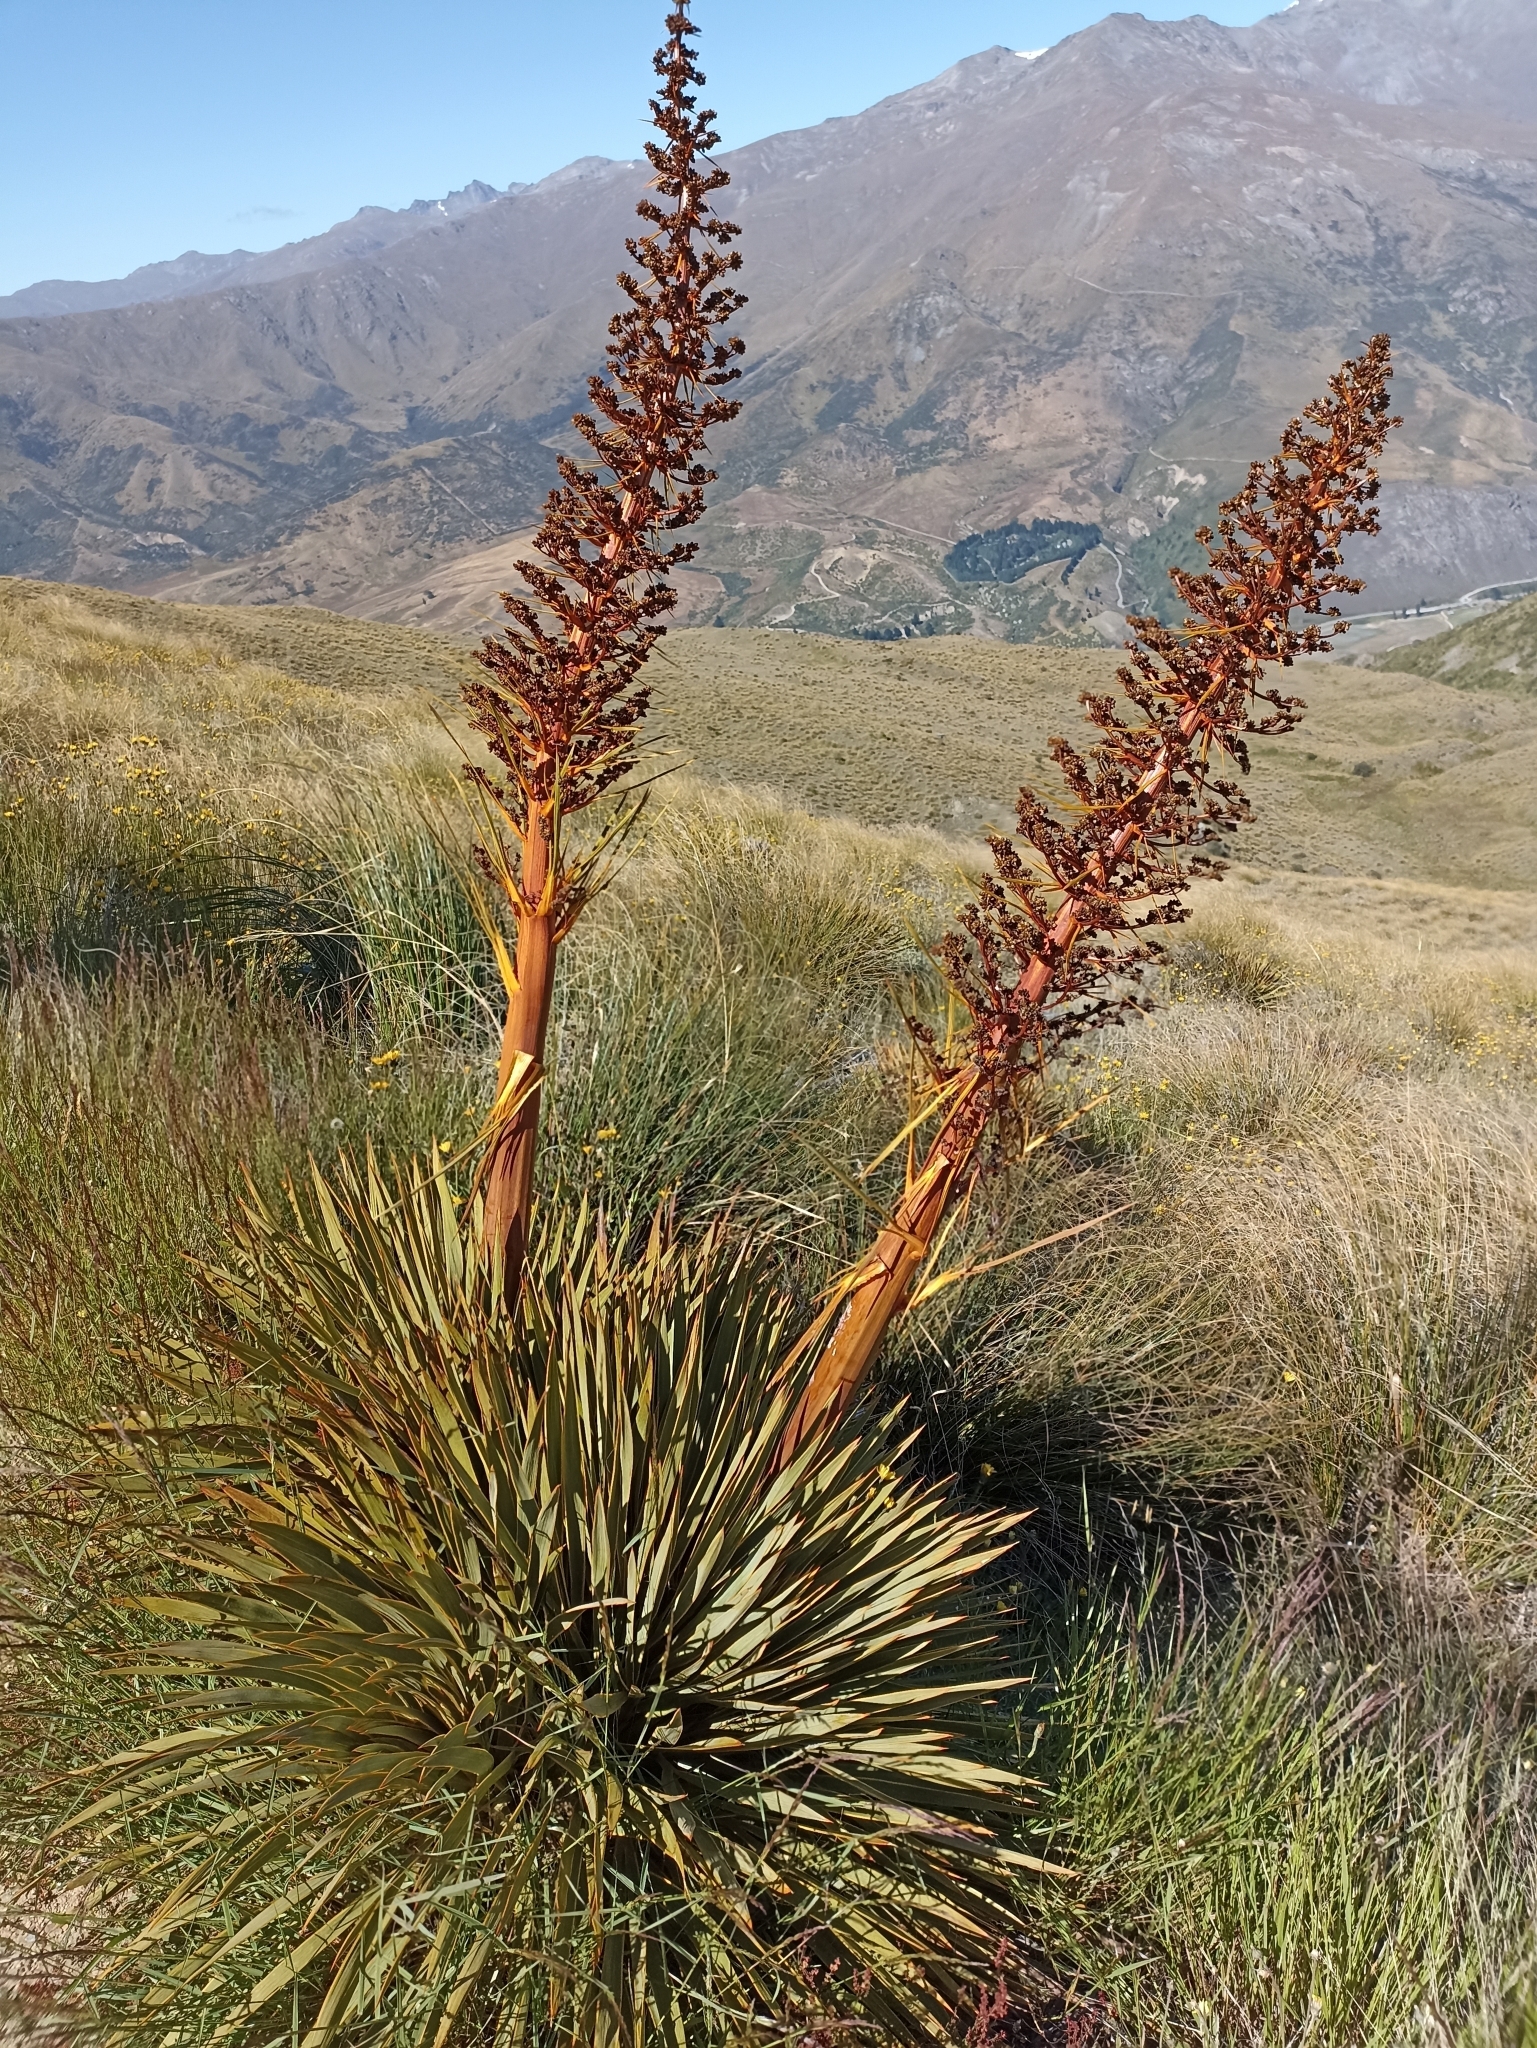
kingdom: Plantae
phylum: Tracheophyta
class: Magnoliopsida
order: Apiales
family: Apiaceae
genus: Aciphylla
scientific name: Aciphylla aurea
